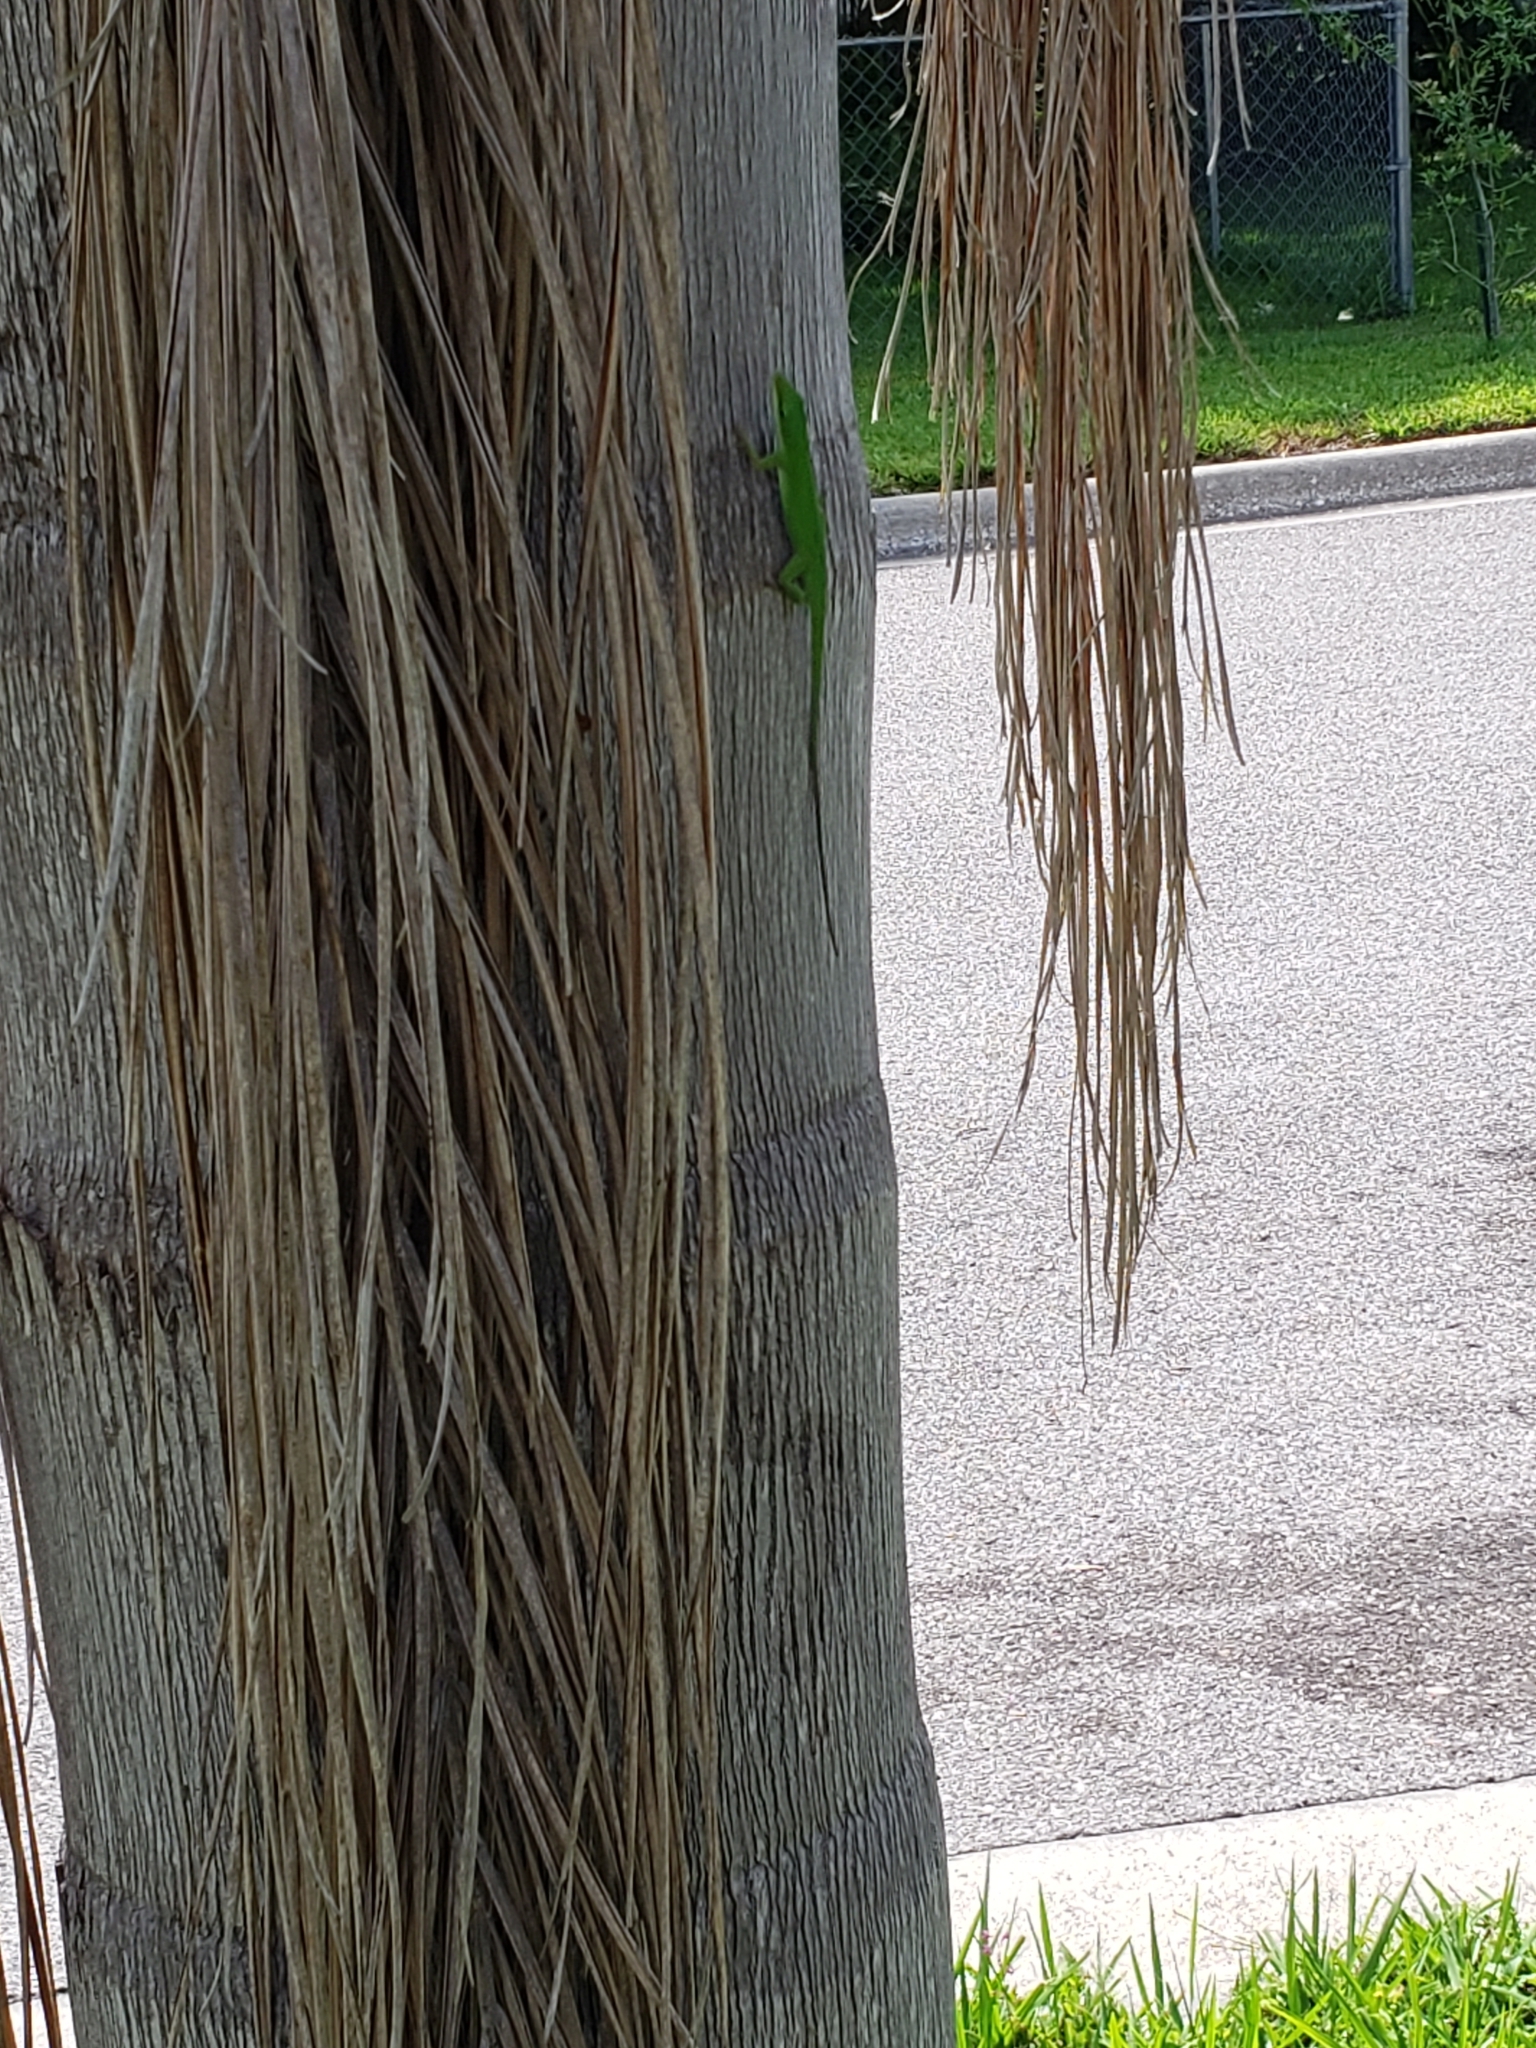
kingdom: Animalia
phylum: Chordata
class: Squamata
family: Dactyloidae
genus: Anolis
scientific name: Anolis carolinensis
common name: Green anole
